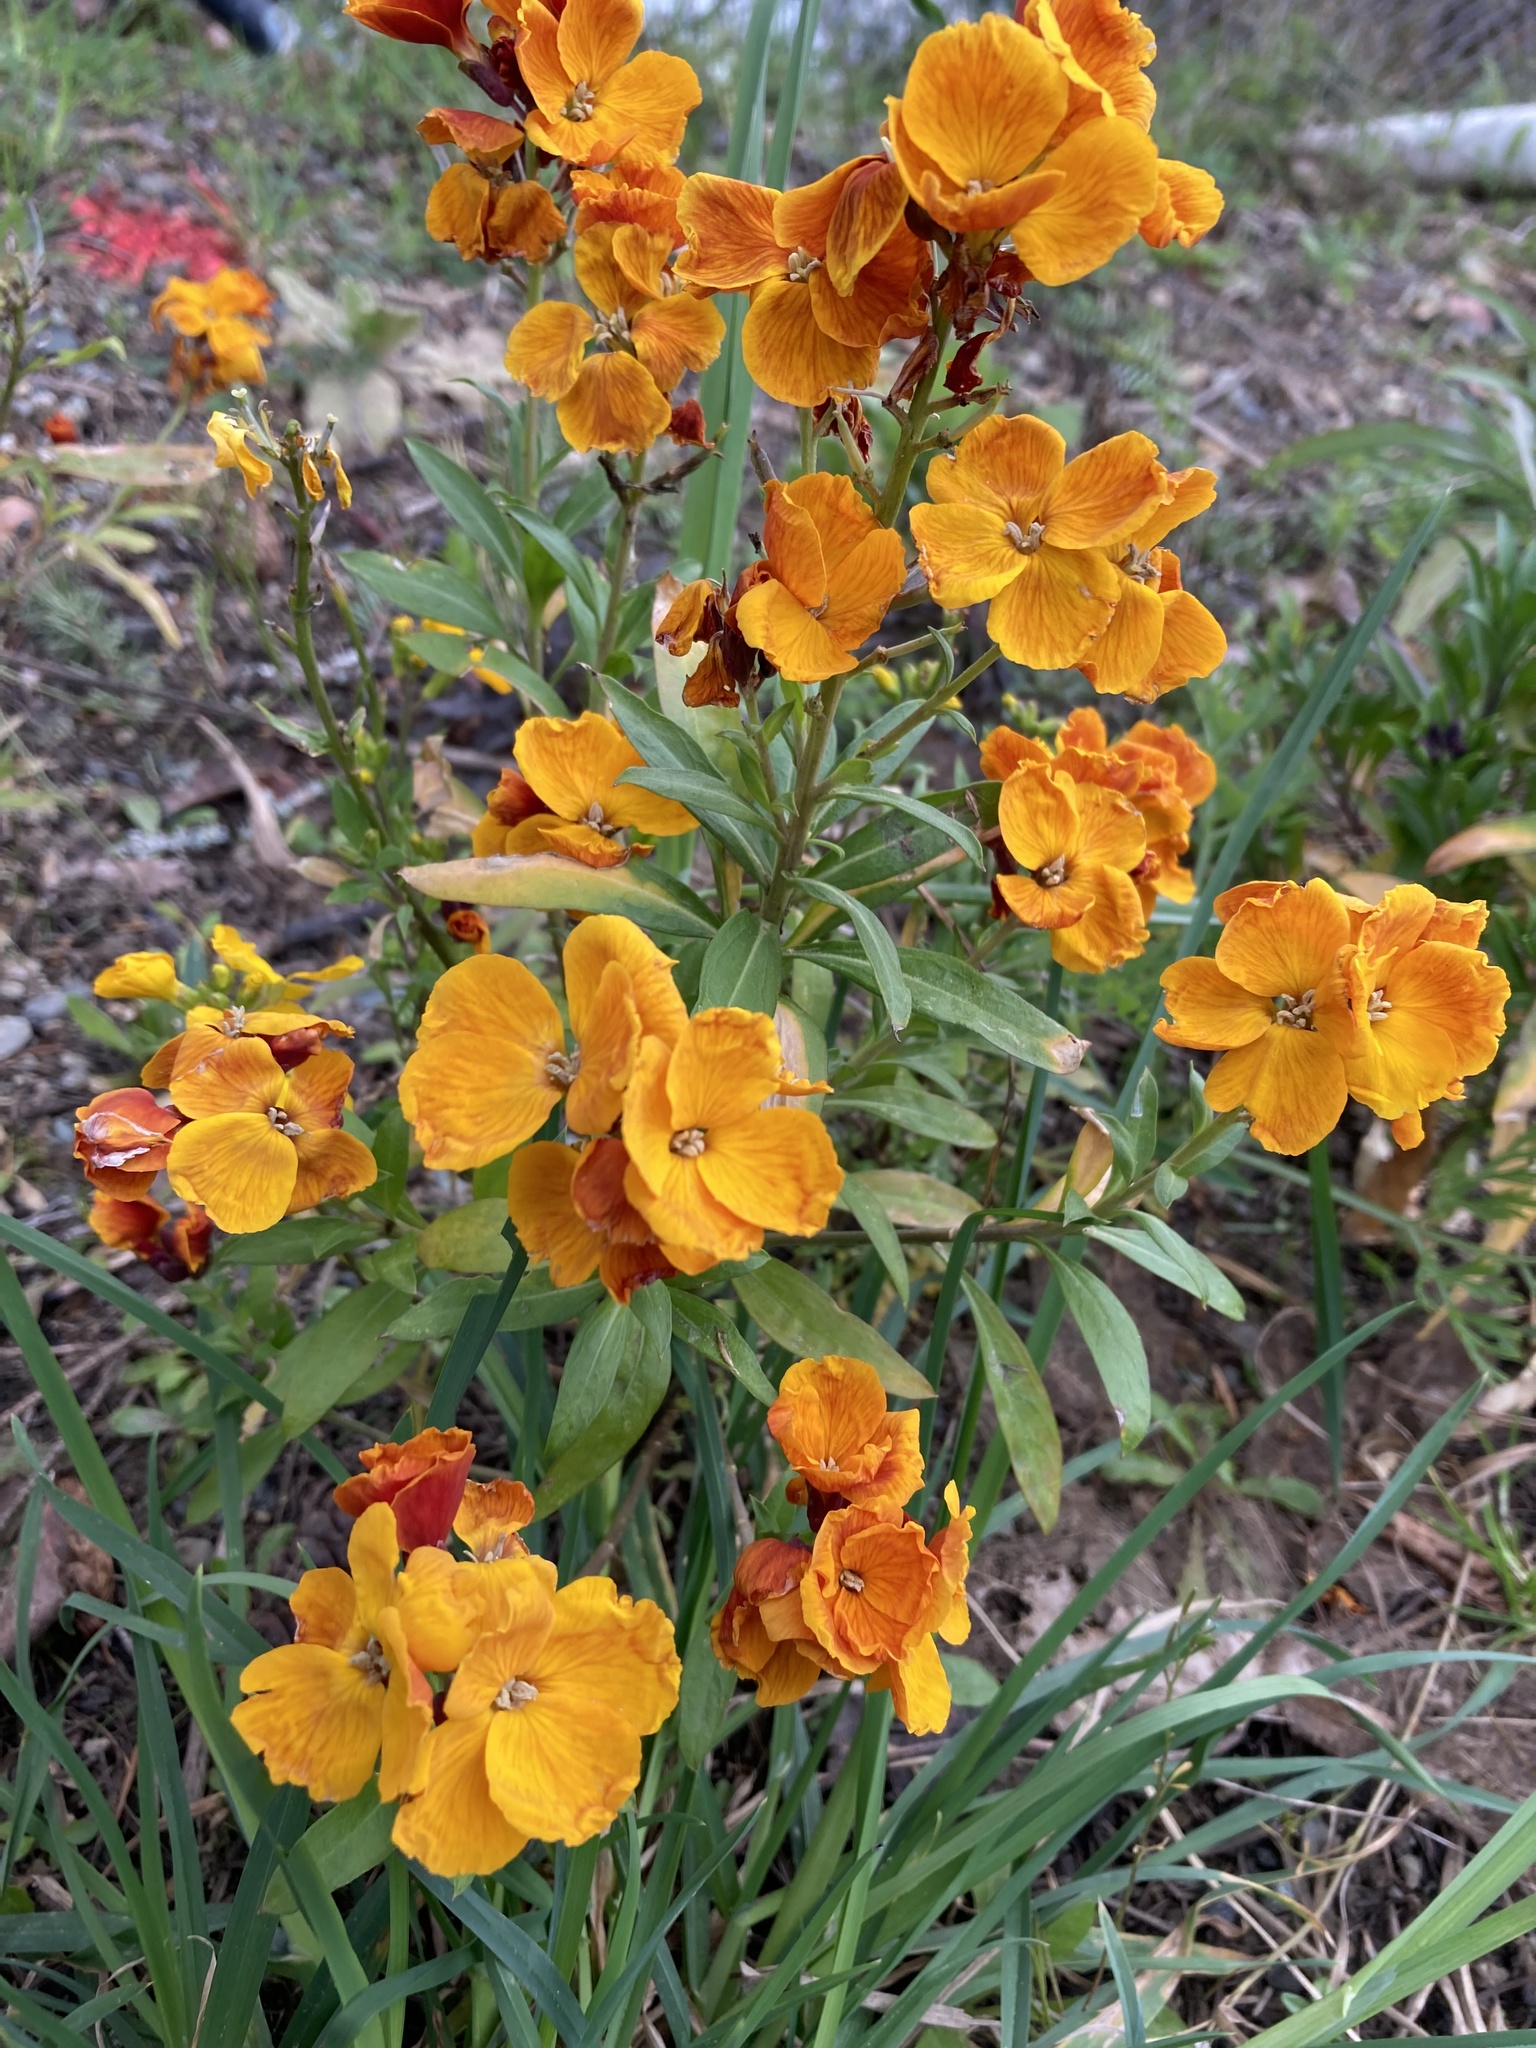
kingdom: Plantae
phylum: Tracheophyta
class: Magnoliopsida
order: Brassicales
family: Brassicaceae
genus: Erysimum
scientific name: Erysimum cheiri
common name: Wallflower
